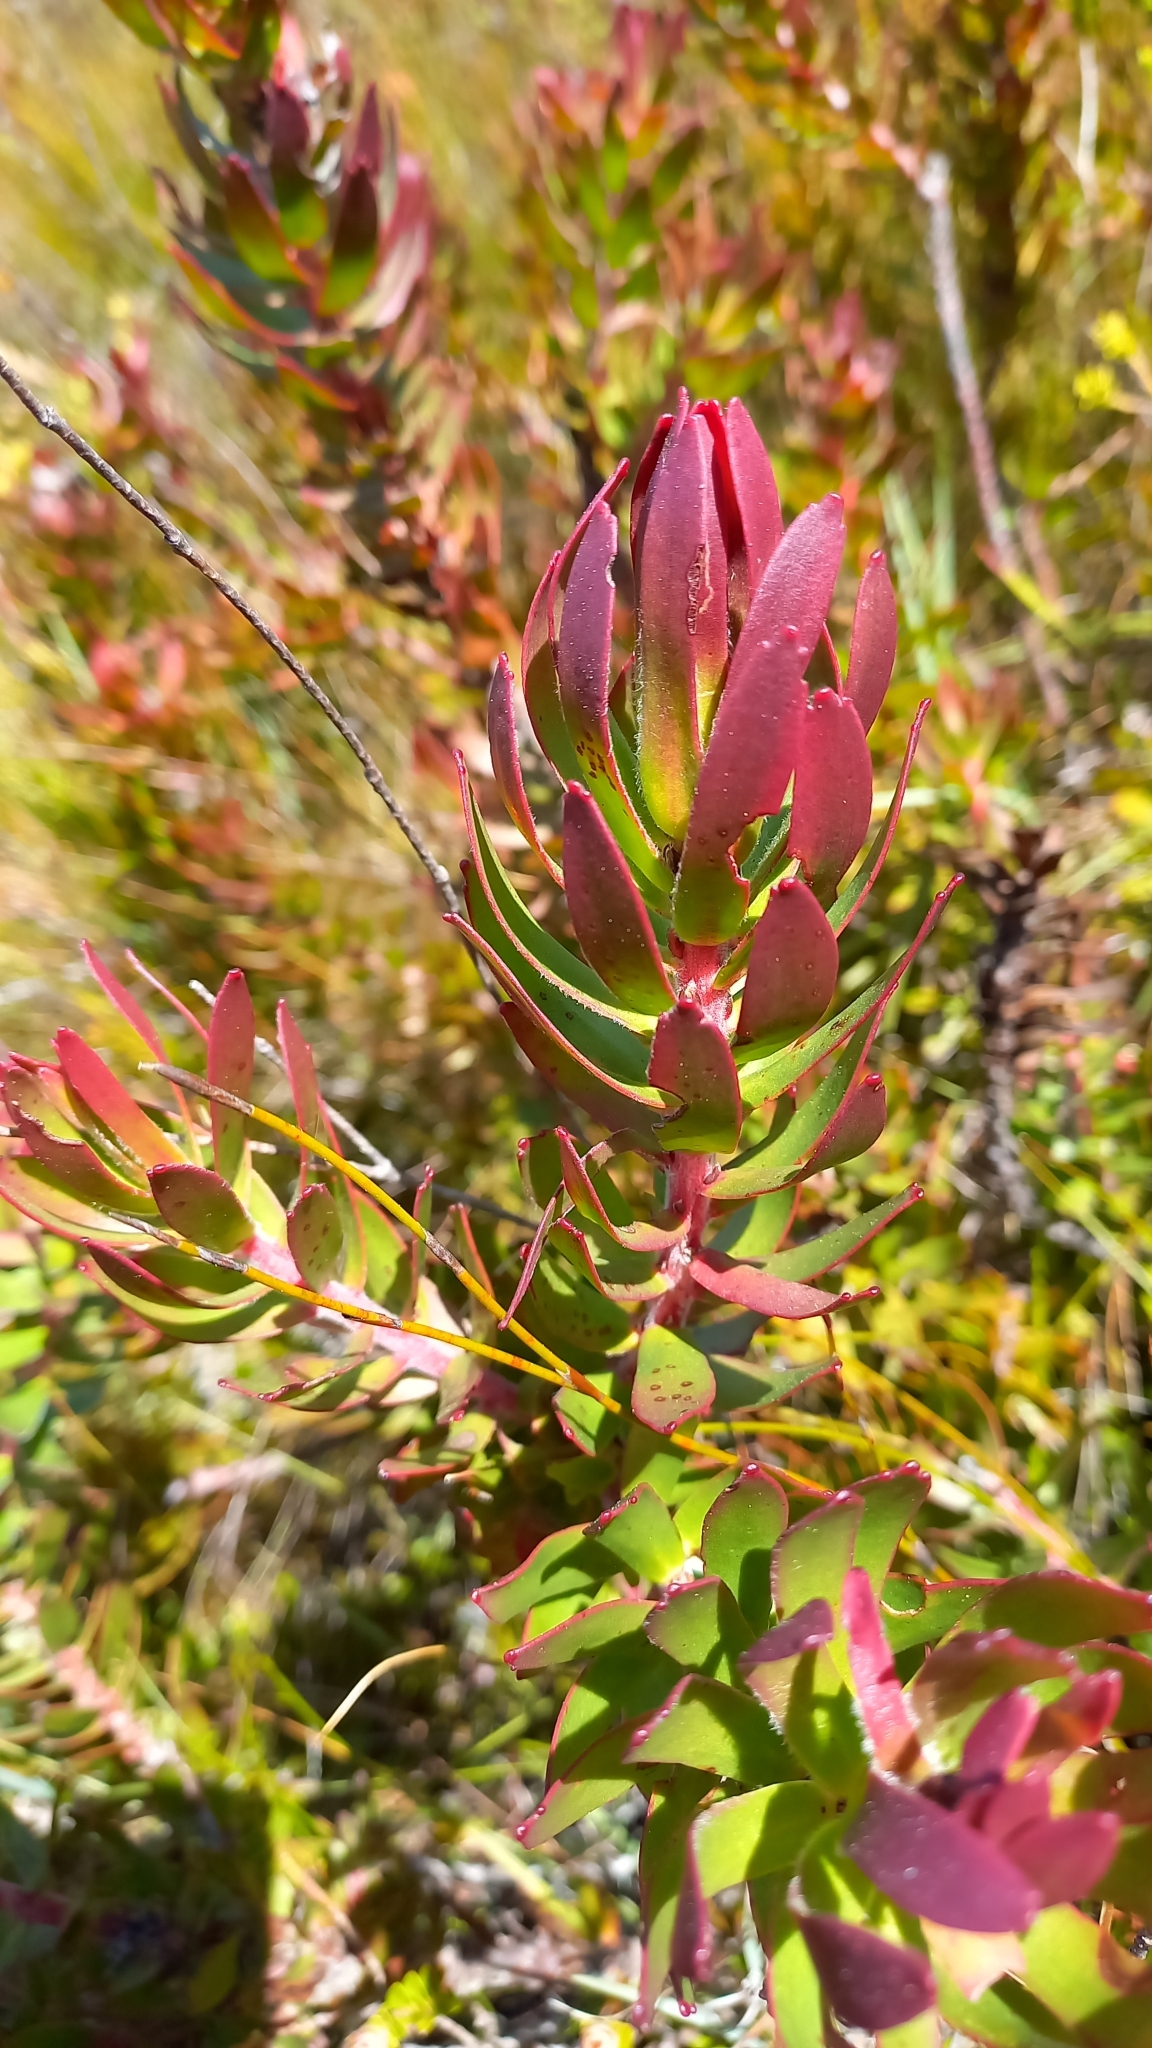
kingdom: Plantae
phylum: Tracheophyta
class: Magnoliopsida
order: Proteales
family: Proteaceae
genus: Mimetes
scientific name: Mimetes cucullatus
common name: Common pagoda
